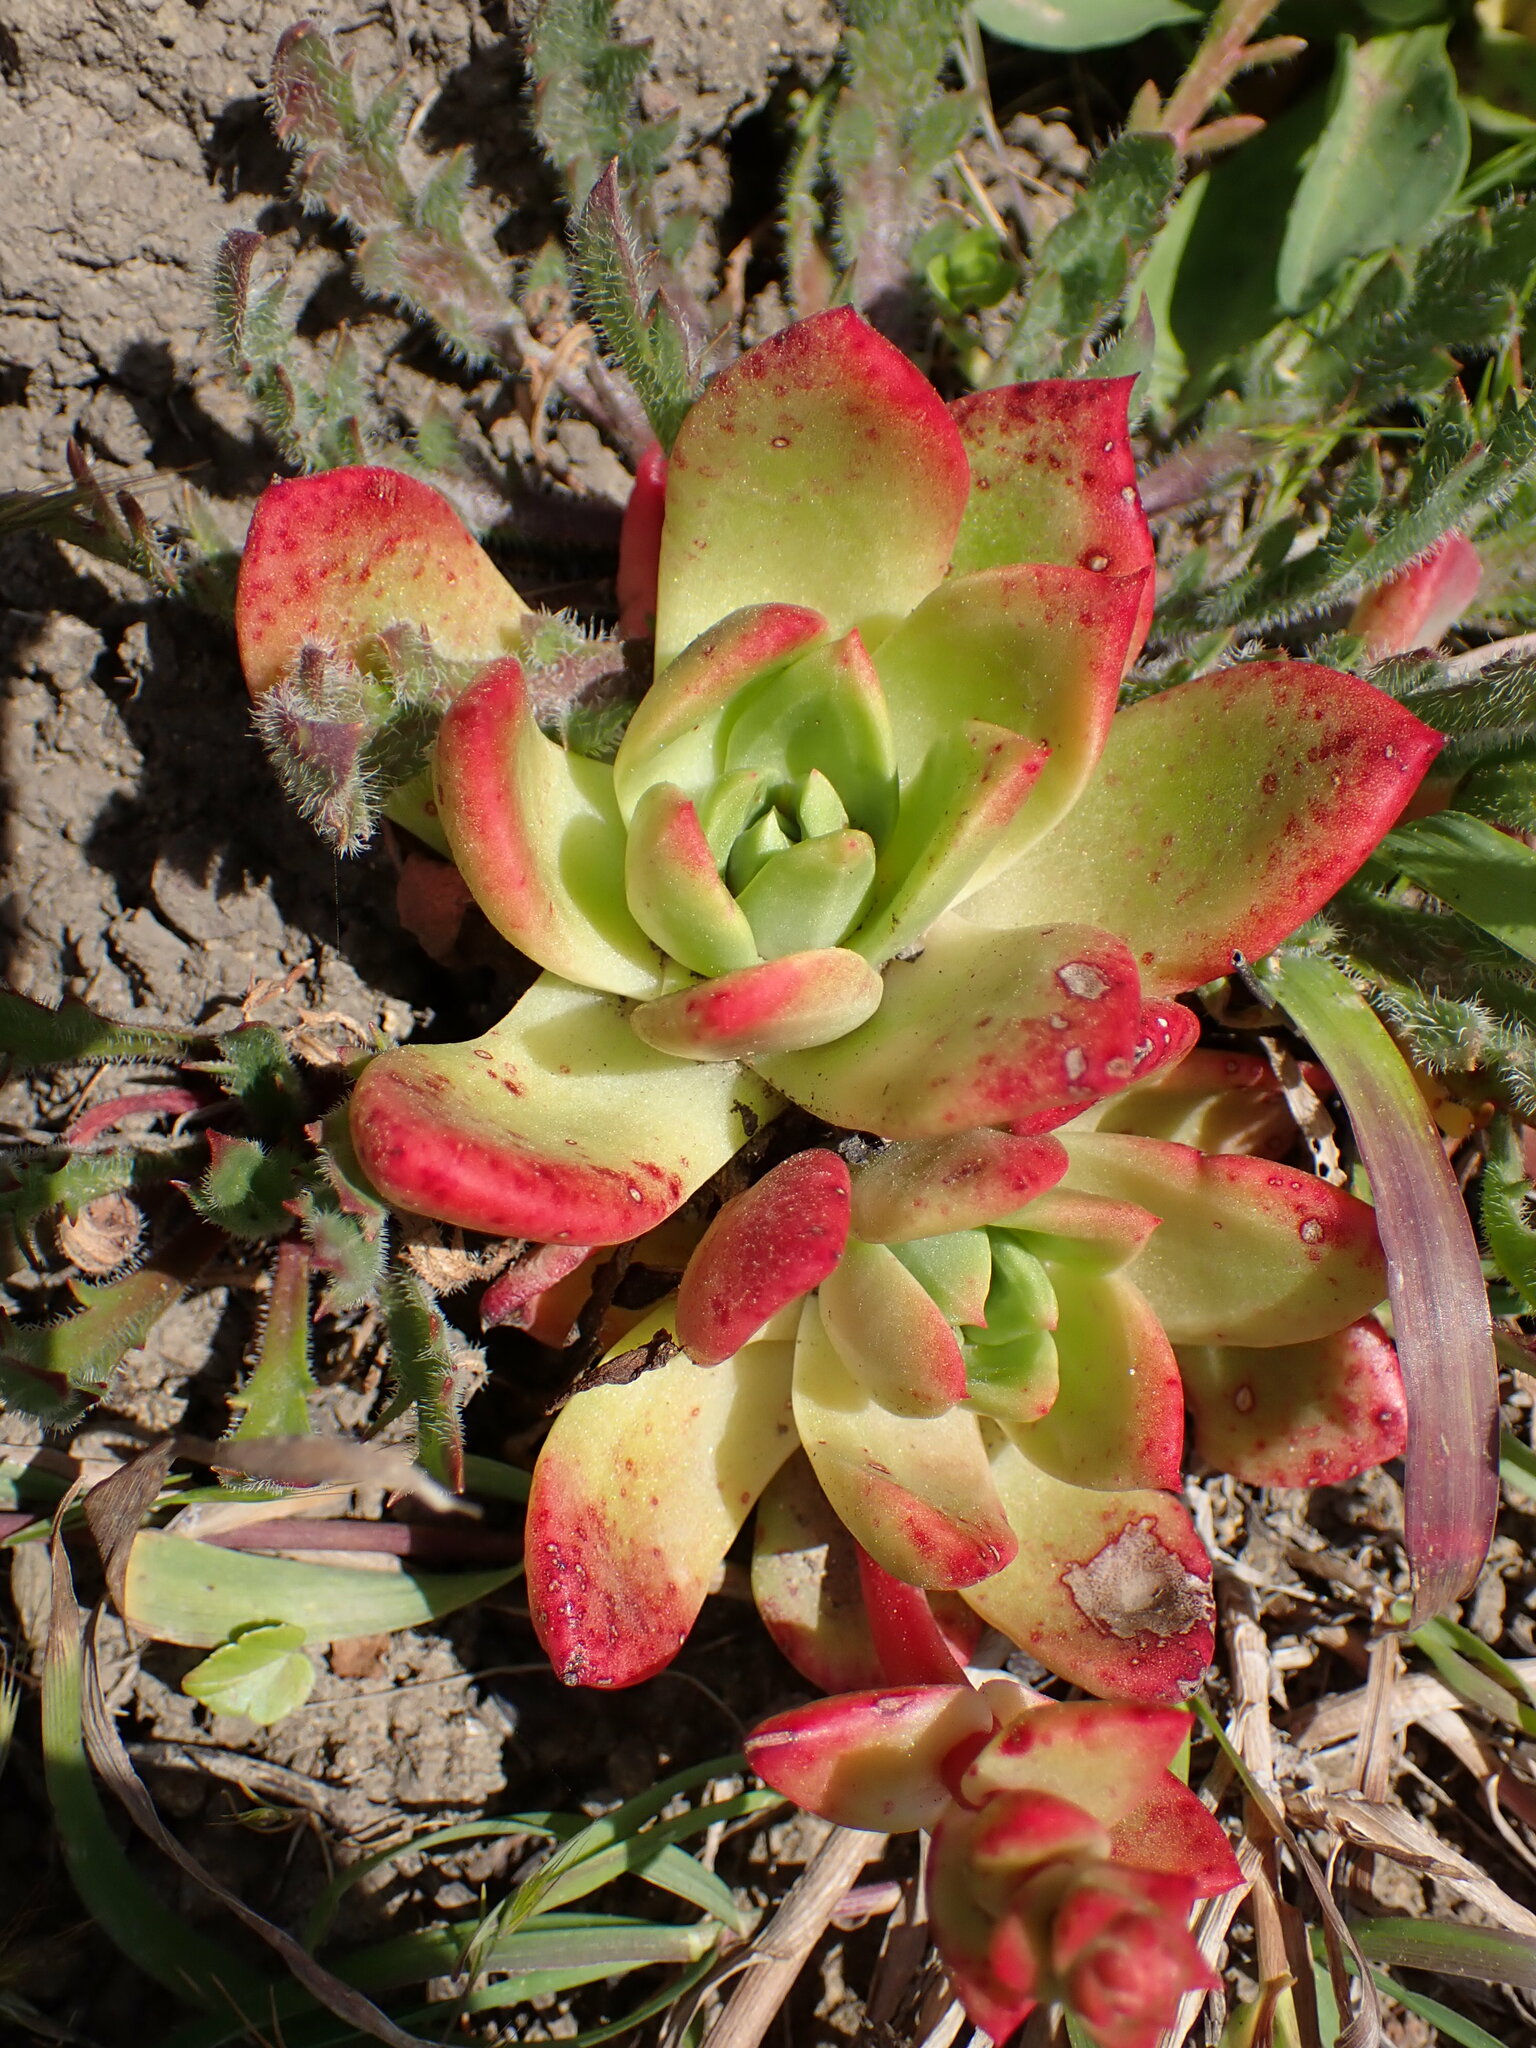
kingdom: Plantae
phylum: Tracheophyta
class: Magnoliopsida
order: Saxifragales
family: Crassulaceae
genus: Dudleya
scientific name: Dudleya farinosa
